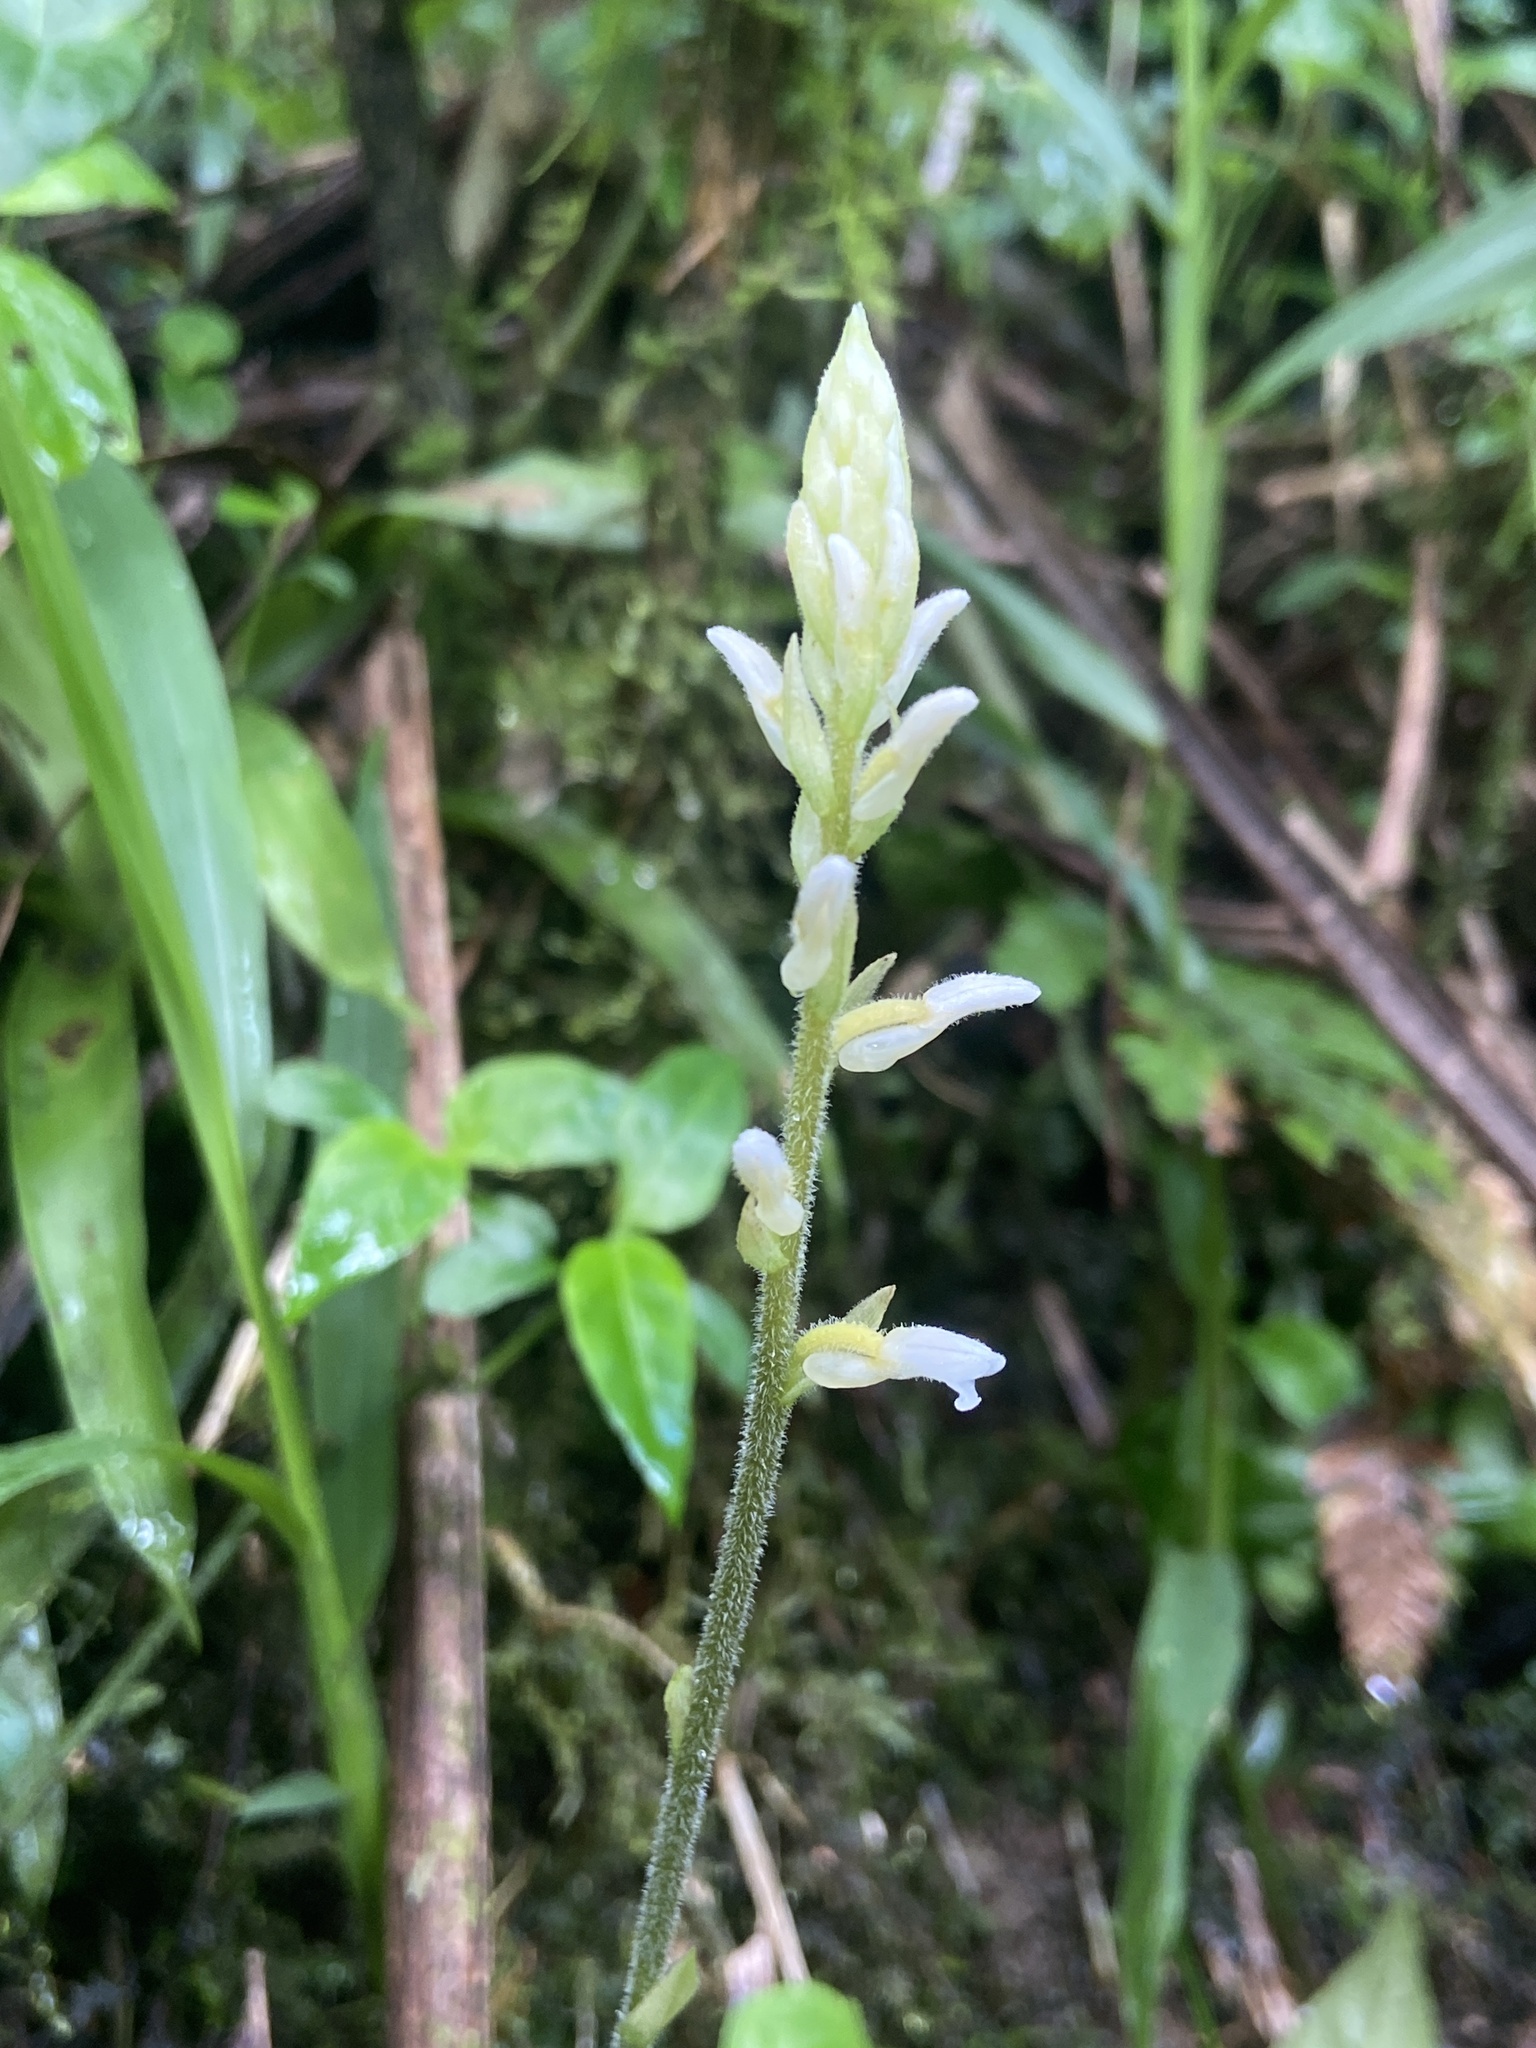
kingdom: Plantae
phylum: Tracheophyta
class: Liliopsida
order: Asparagales
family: Orchidaceae
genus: Microchilus
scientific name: Microchilus plantagineus
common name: Caribbean false helmetorchid
